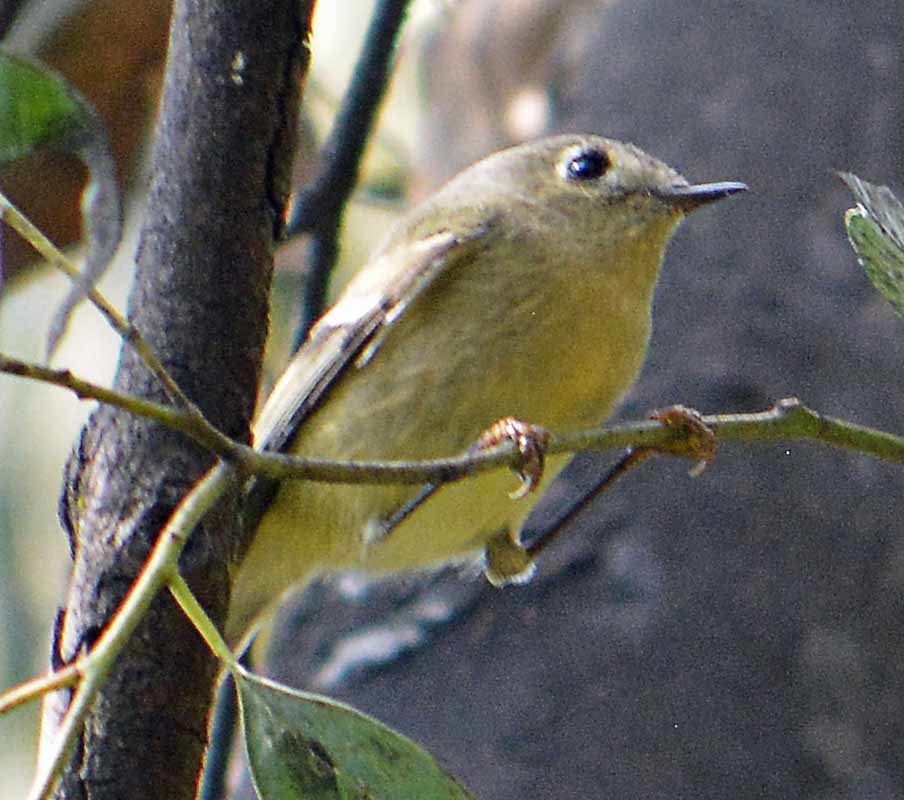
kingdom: Animalia
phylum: Chordata
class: Aves
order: Passeriformes
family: Regulidae
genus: Regulus
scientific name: Regulus calendula
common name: Ruby-crowned kinglet
